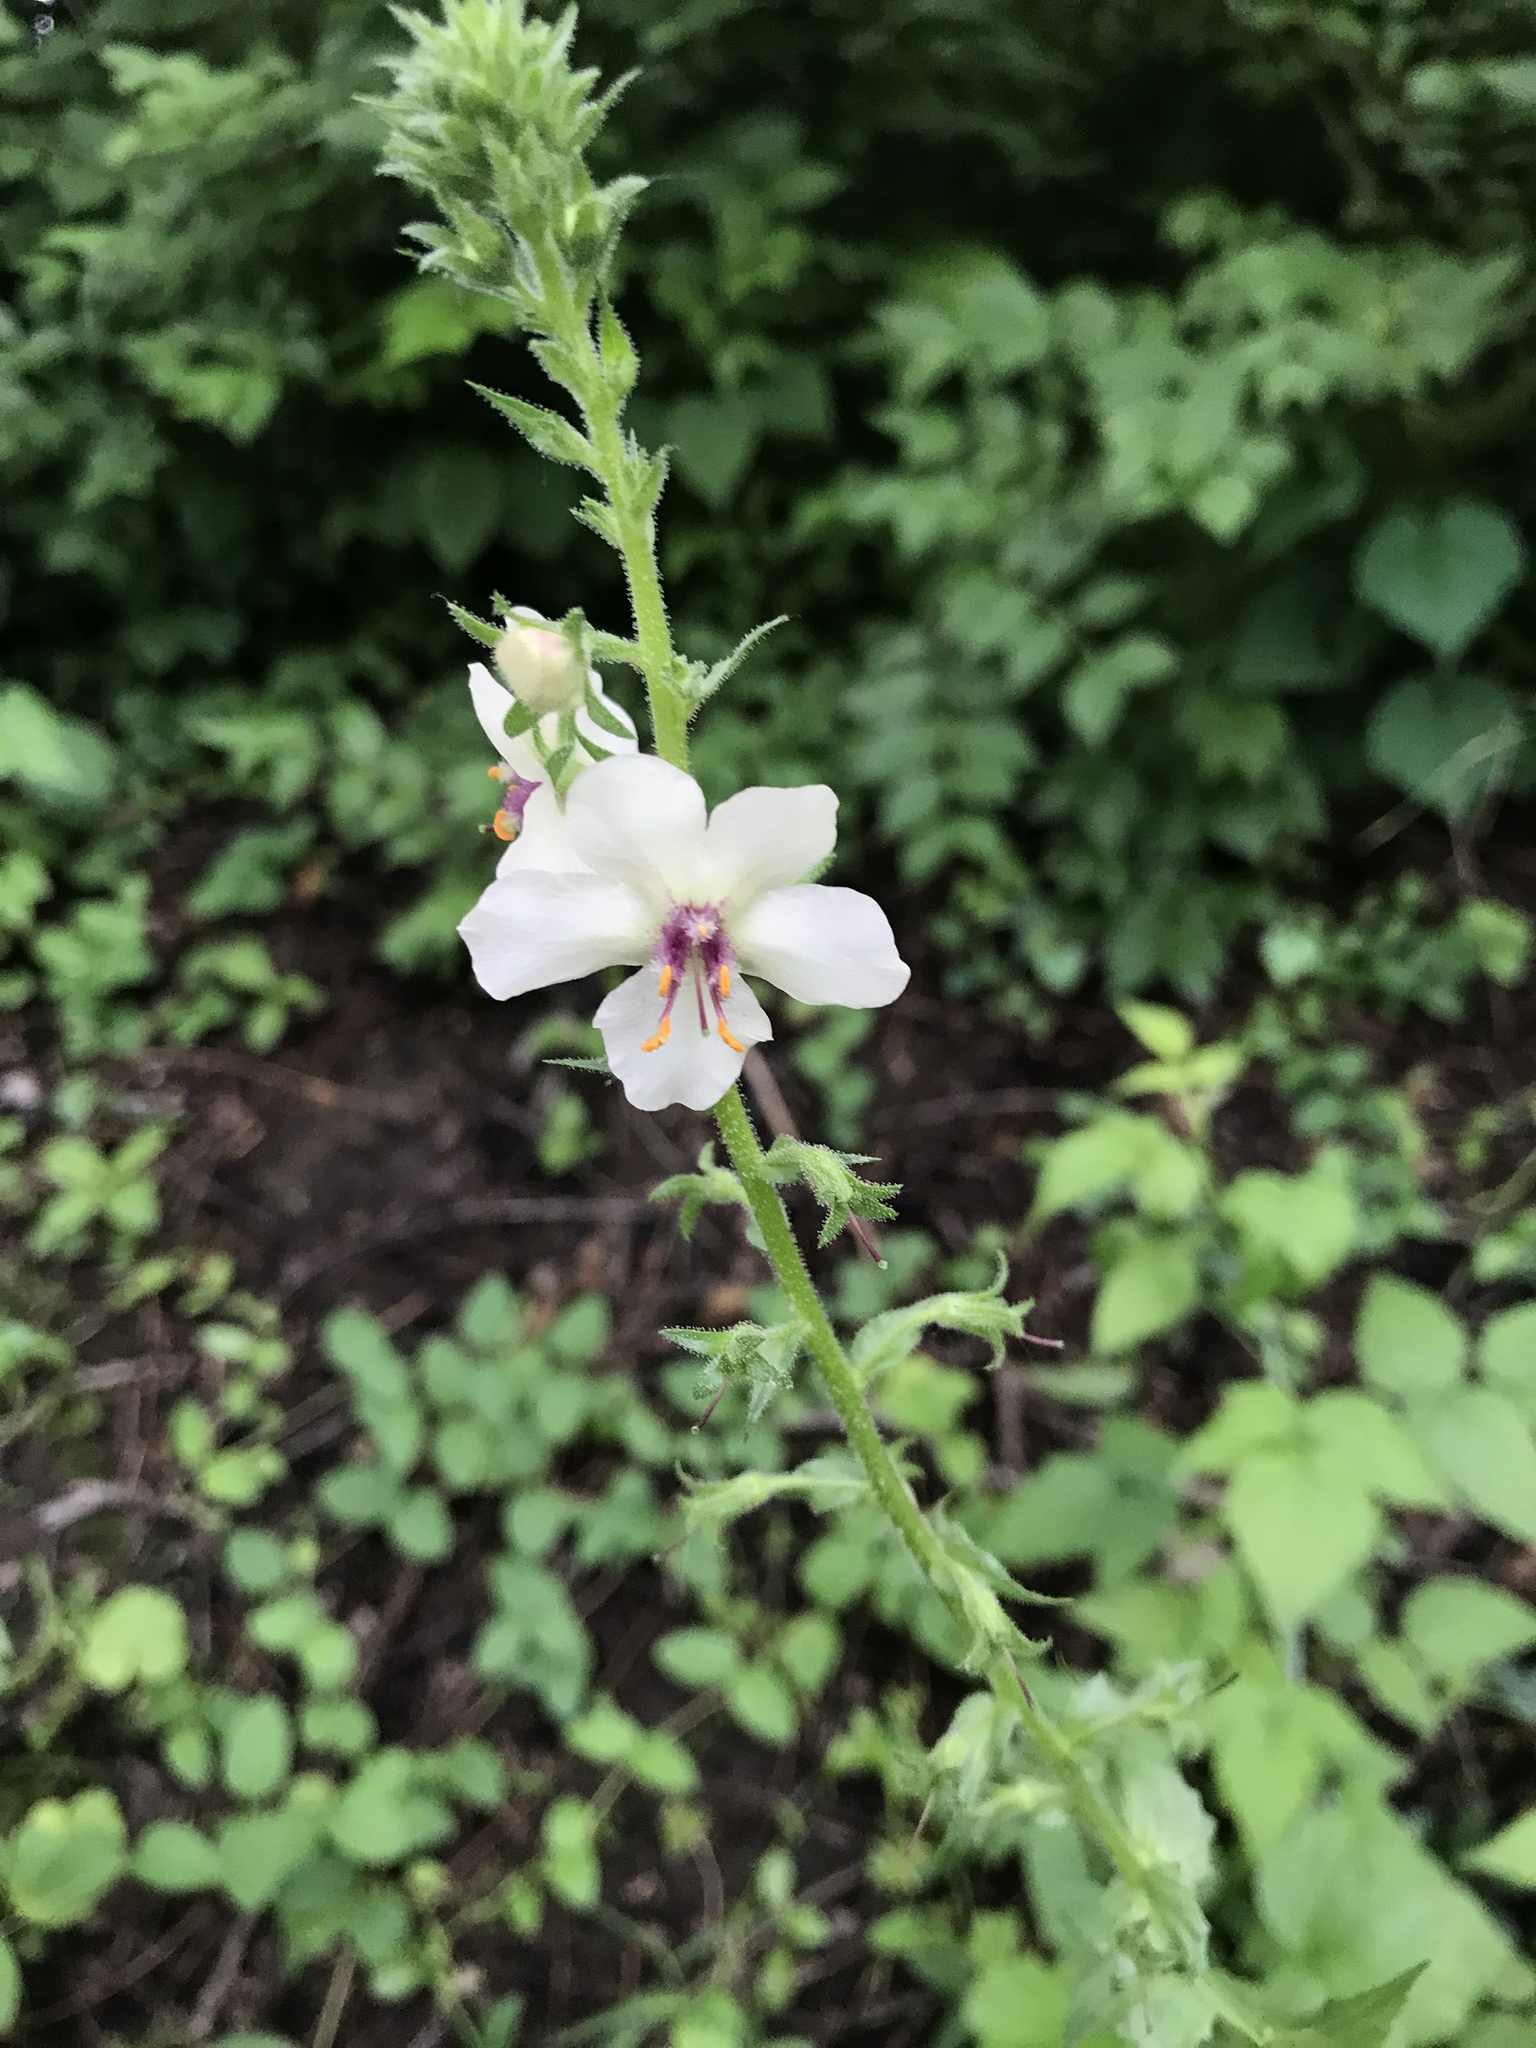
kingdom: Plantae
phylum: Tracheophyta
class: Magnoliopsida
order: Lamiales
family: Scrophulariaceae
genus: Verbascum
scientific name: Verbascum blattaria
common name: Moth mullein
